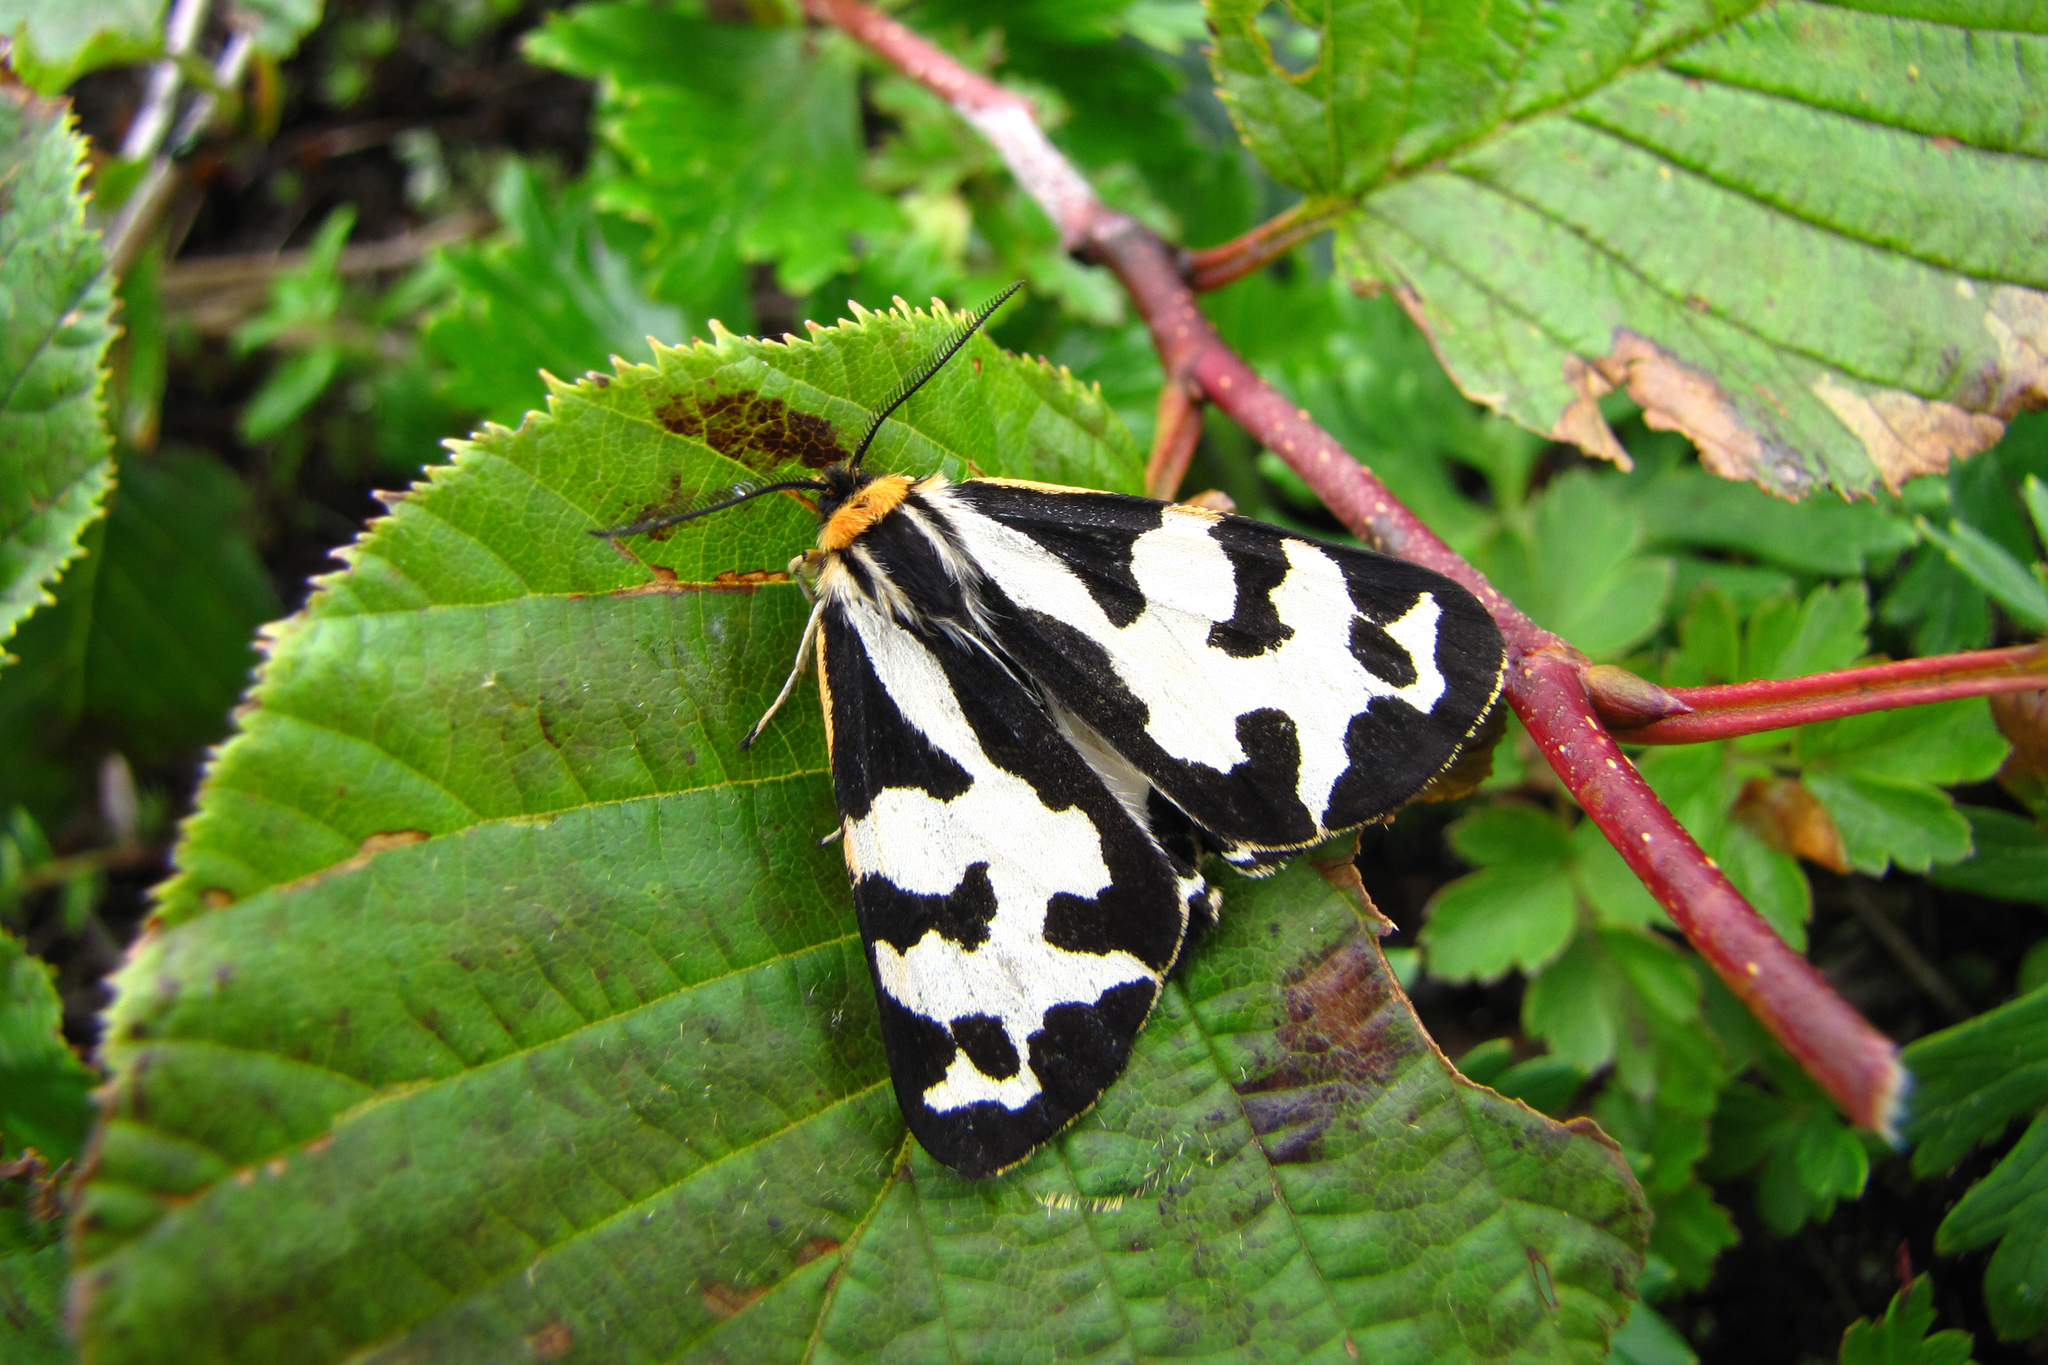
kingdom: Animalia
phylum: Arthropoda
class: Insecta
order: Lepidoptera
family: Erebidae
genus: Parasemia
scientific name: Parasemia plantaginis
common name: Wood tiger
